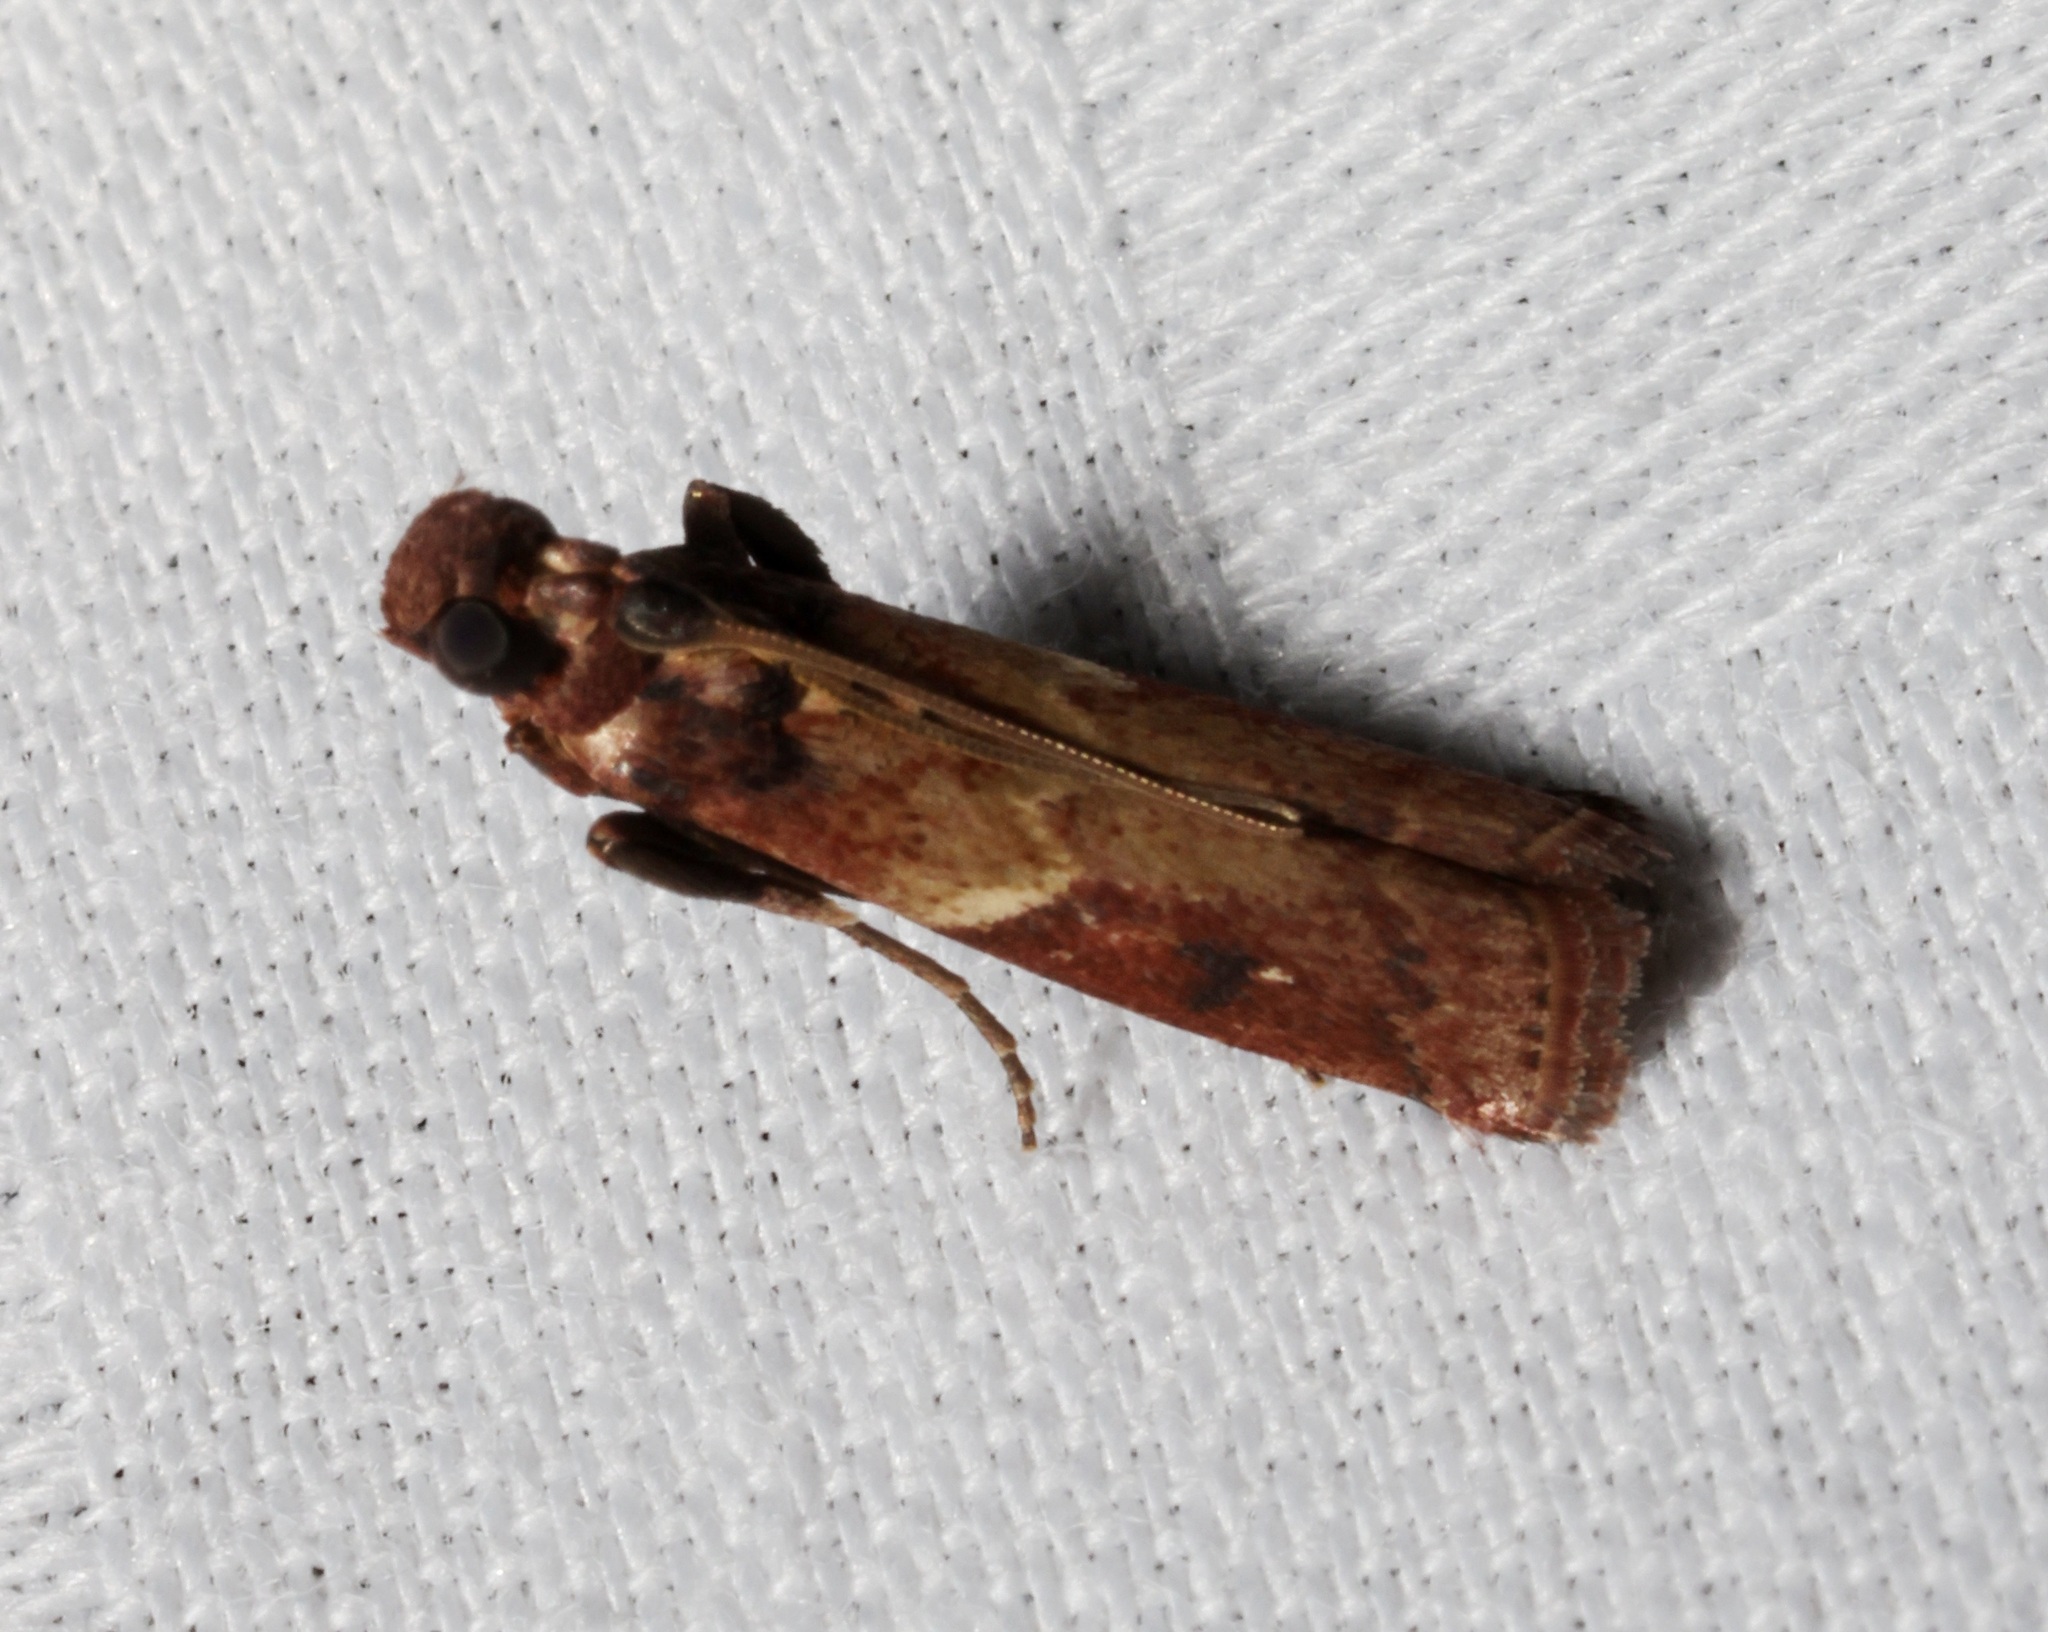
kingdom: Animalia
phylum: Arthropoda
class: Insecta
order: Lepidoptera
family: Pyralidae
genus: Volobilis
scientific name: Volobilis biplaga
